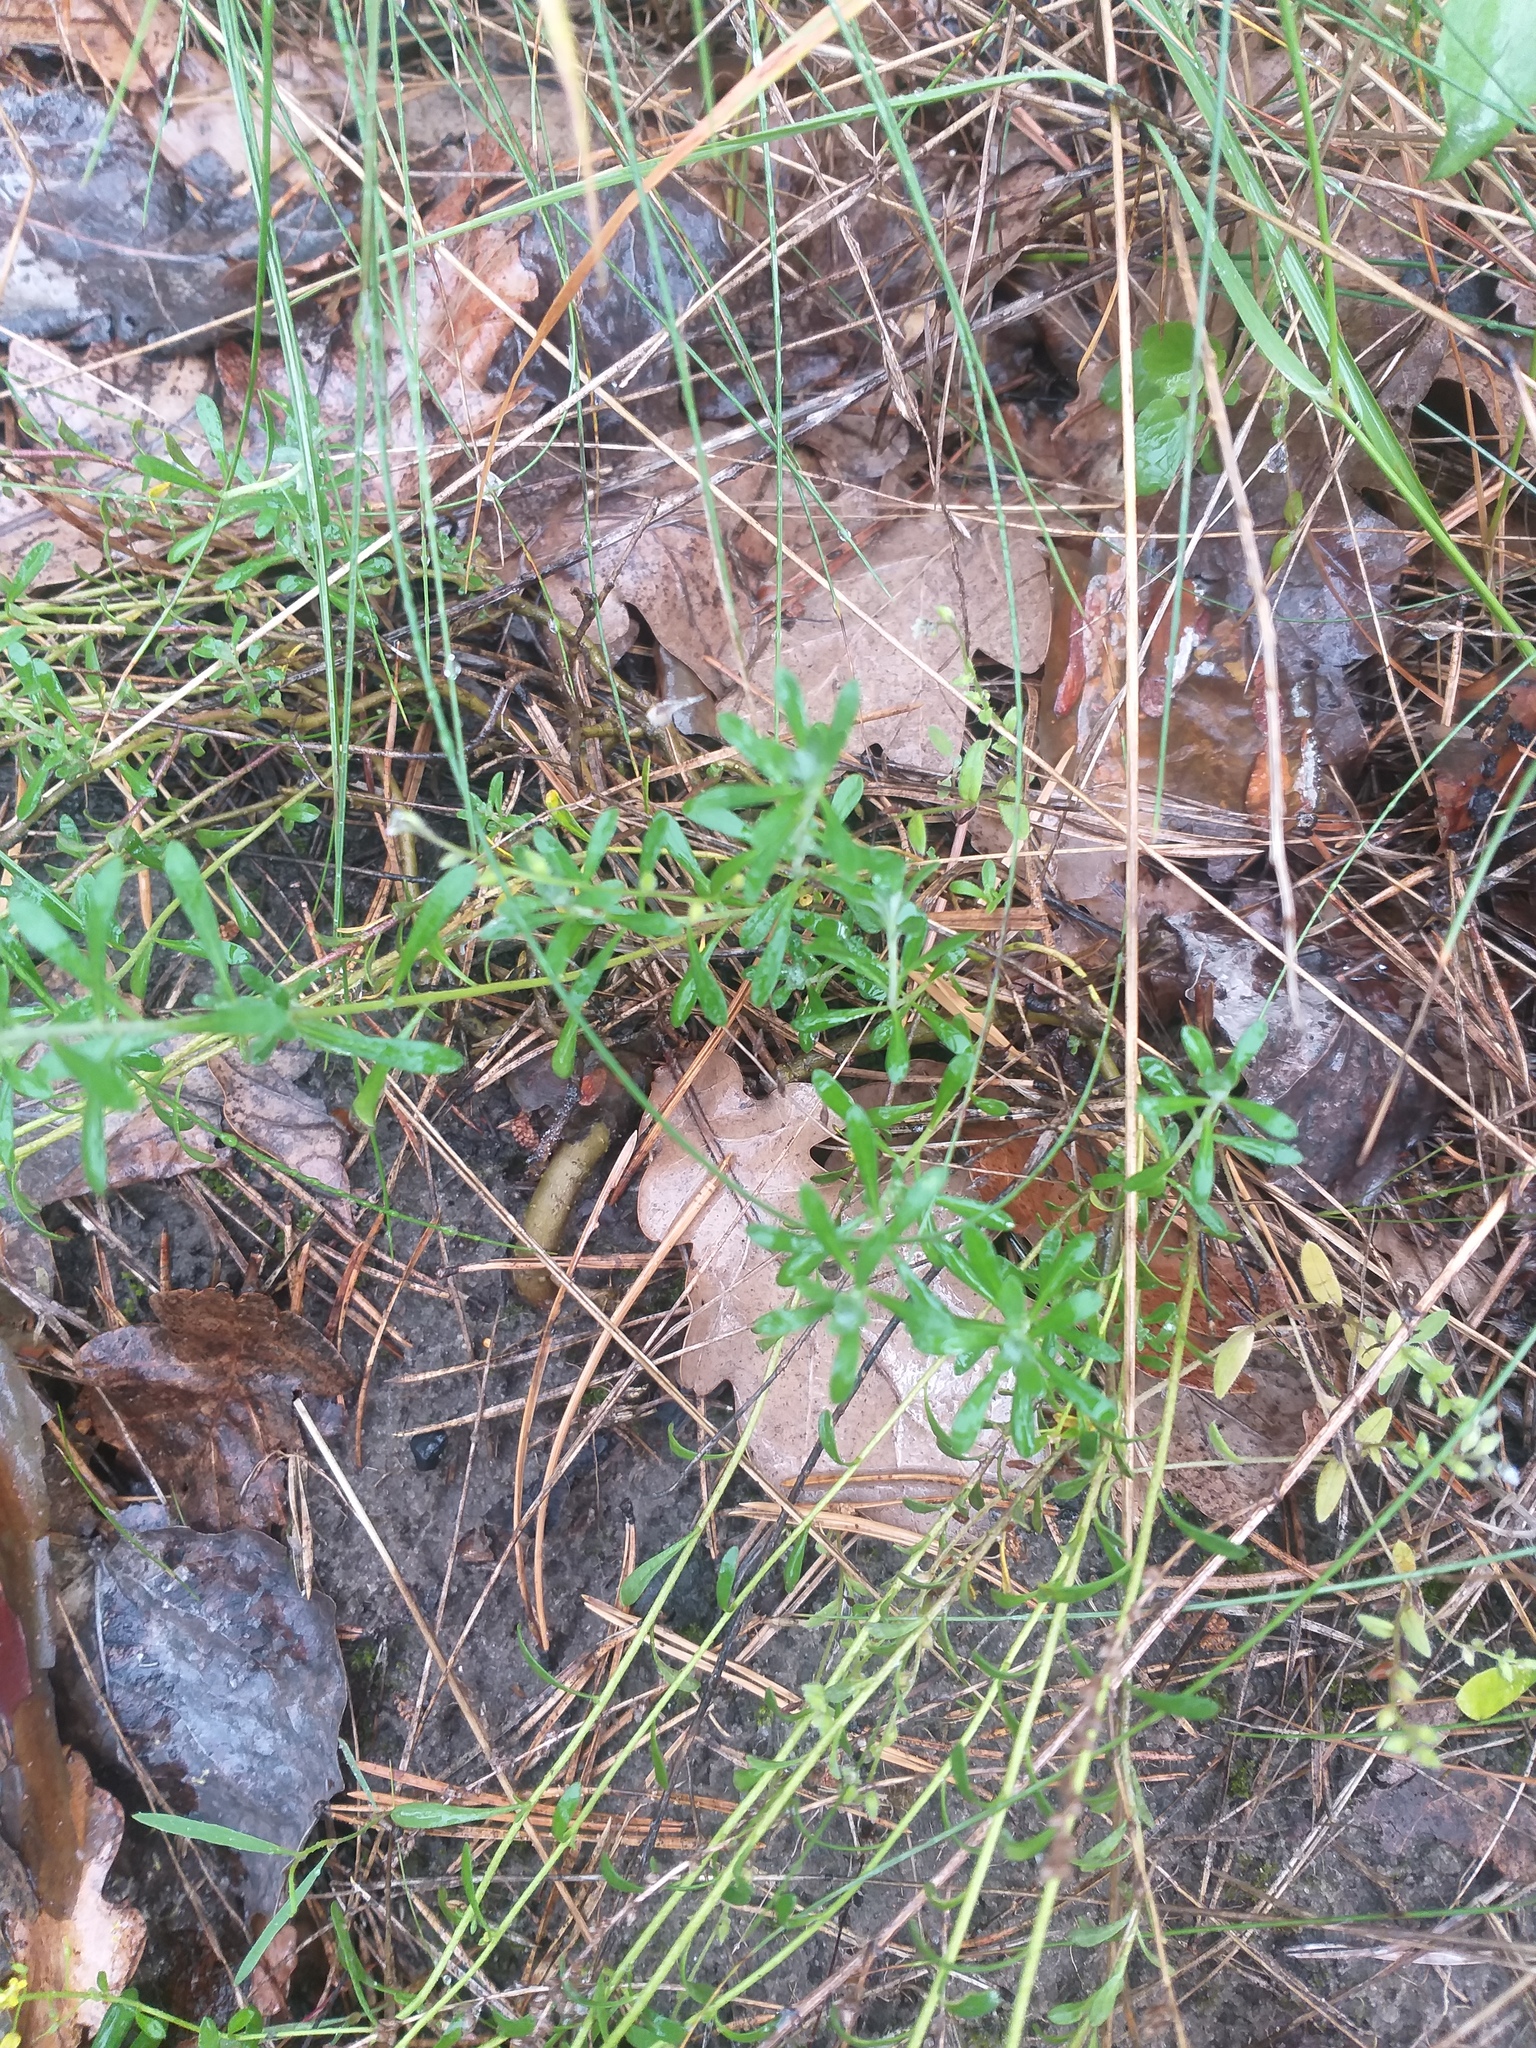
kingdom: Plantae
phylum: Tracheophyta
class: Magnoliopsida
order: Brassicales
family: Brassicaceae
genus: Odontarrhena
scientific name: Odontarrhena tortuosa
